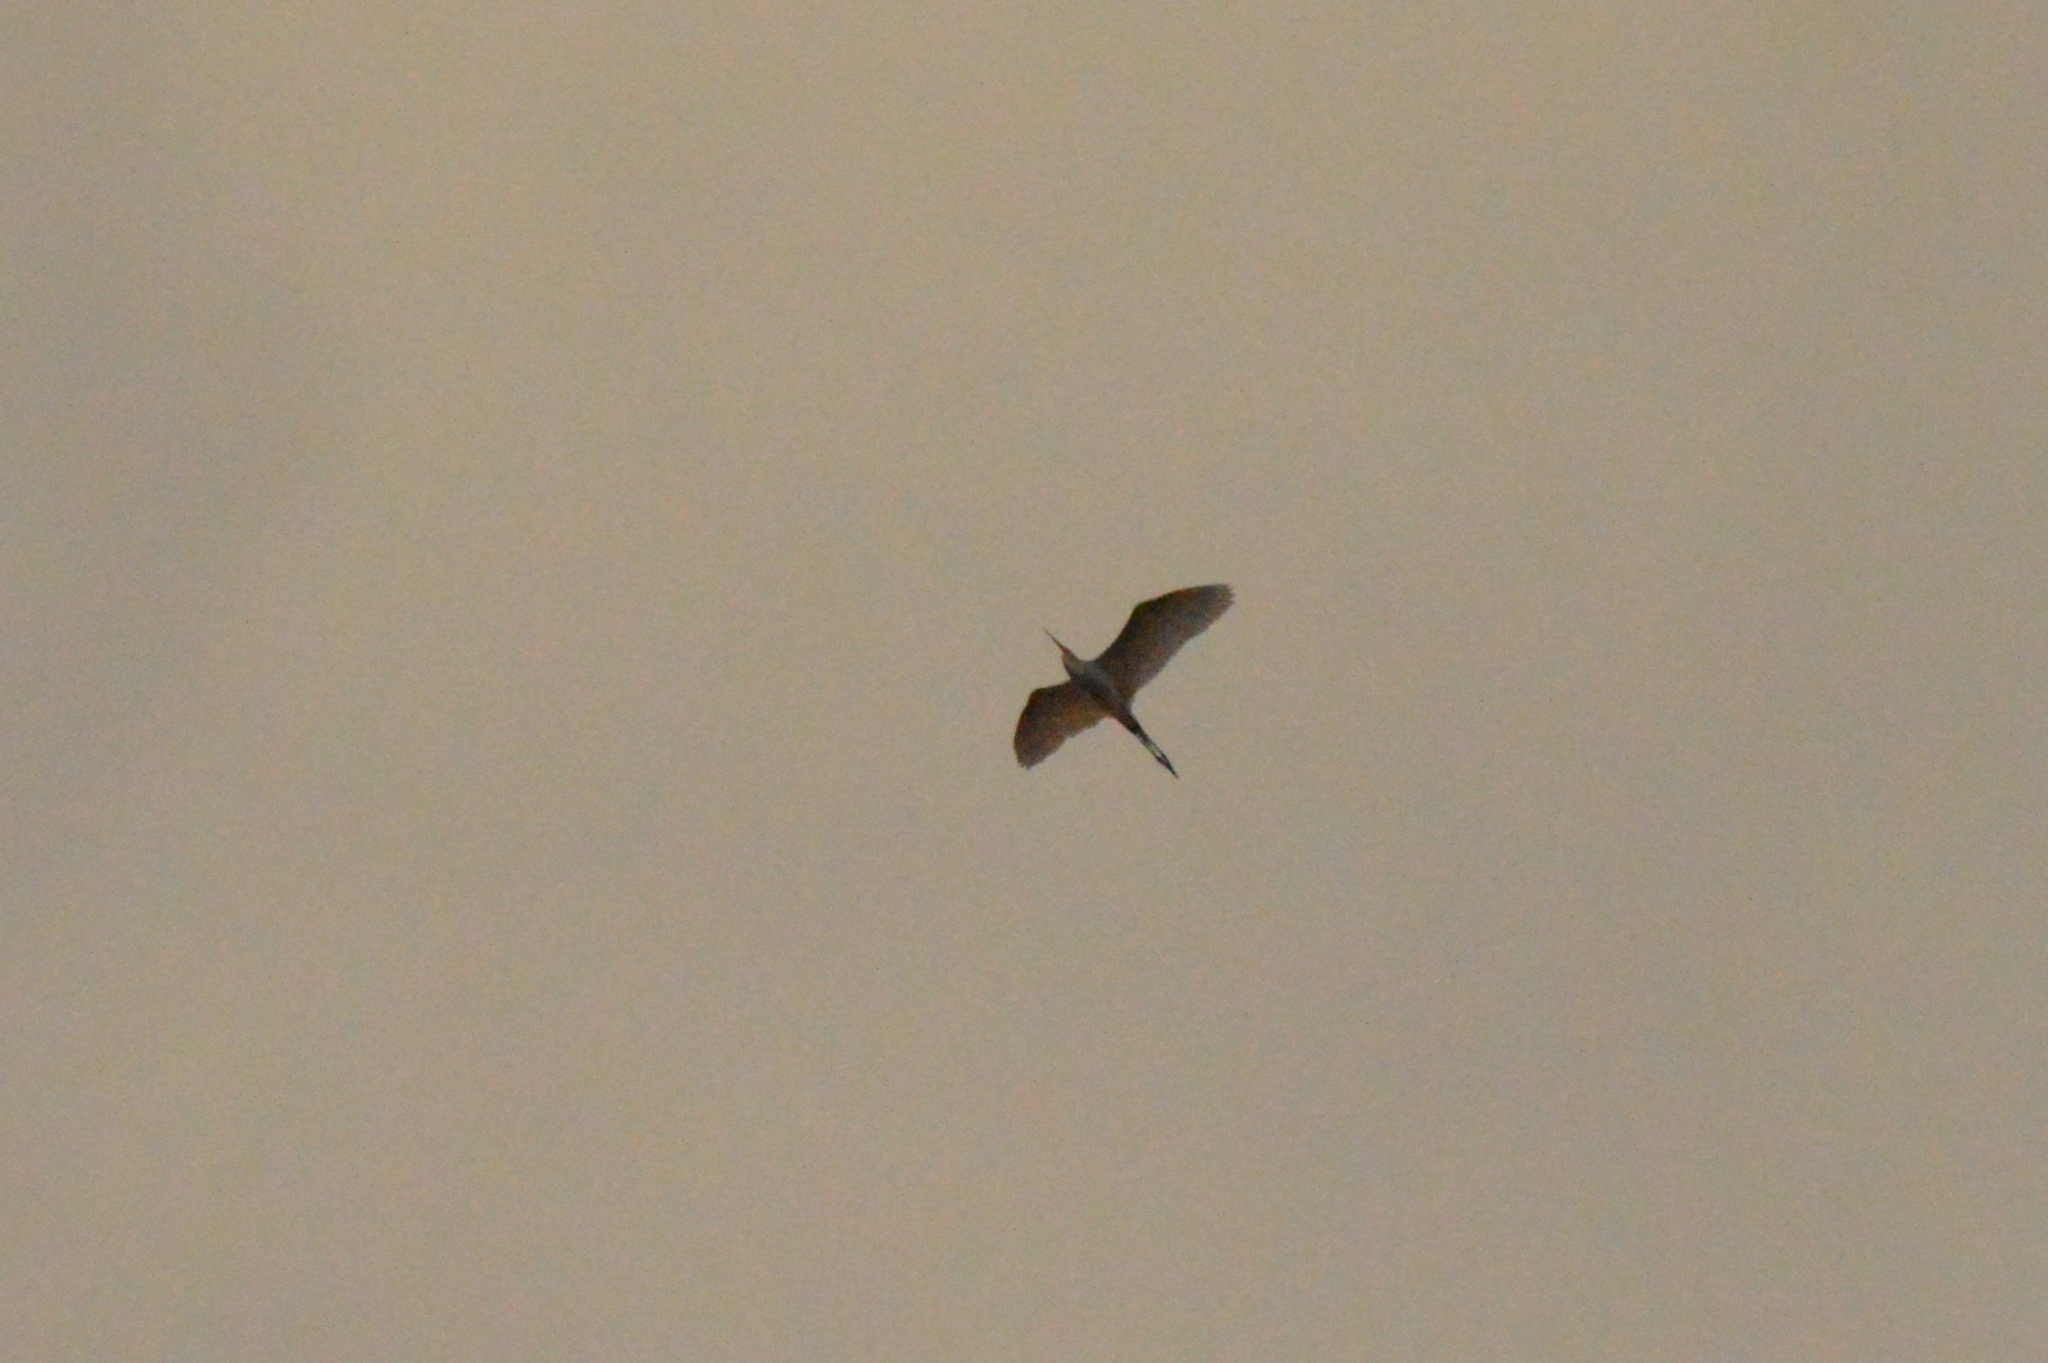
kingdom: Animalia
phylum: Chordata
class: Aves
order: Pelecaniformes
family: Ardeidae
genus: Ardea
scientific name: Ardea alba
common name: Great egret
